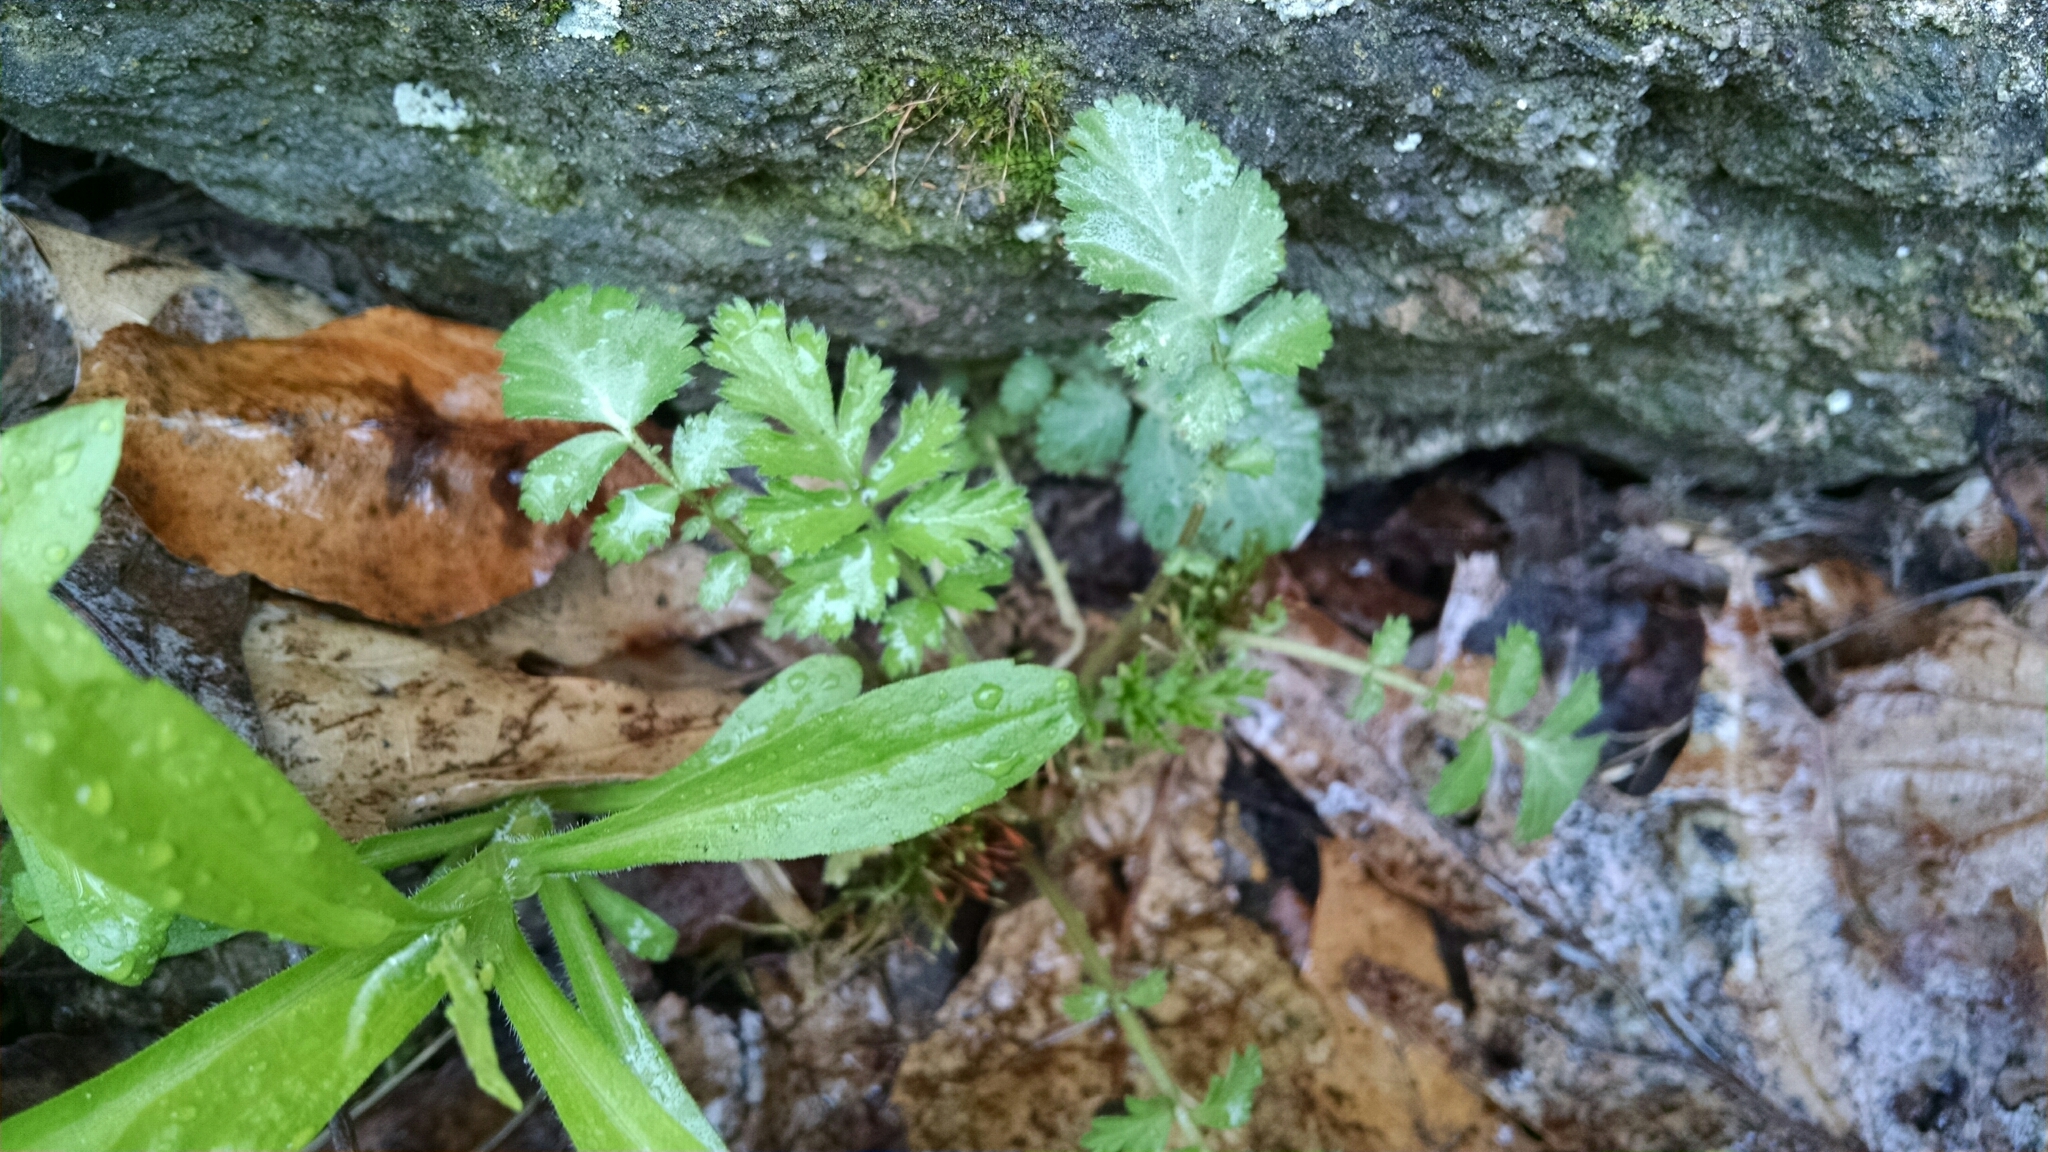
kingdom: Plantae
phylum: Tracheophyta
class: Magnoliopsida
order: Rosales
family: Rosaceae
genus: Geum
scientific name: Geum canadense
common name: White avens
